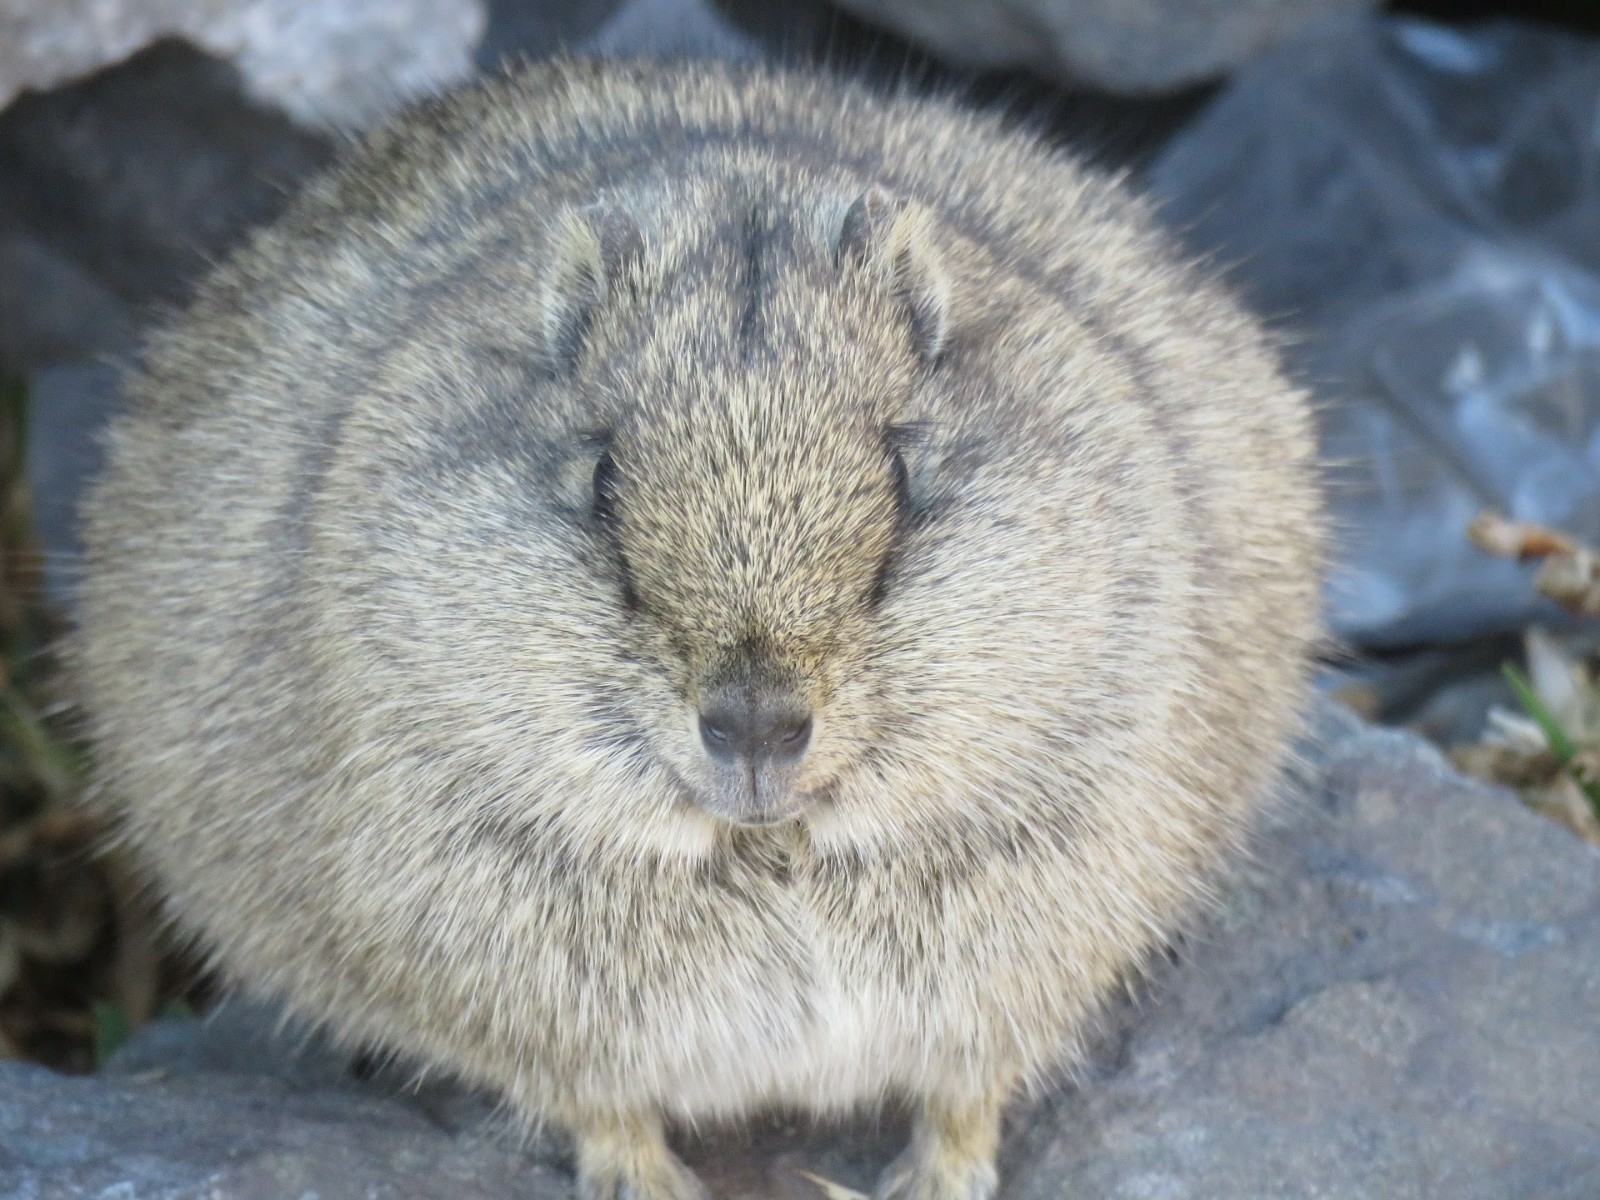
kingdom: Animalia
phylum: Chordata
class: Mammalia
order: Rodentia
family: Caviidae
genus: Cavia
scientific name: Cavia tschudii
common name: Montane guinea pig
